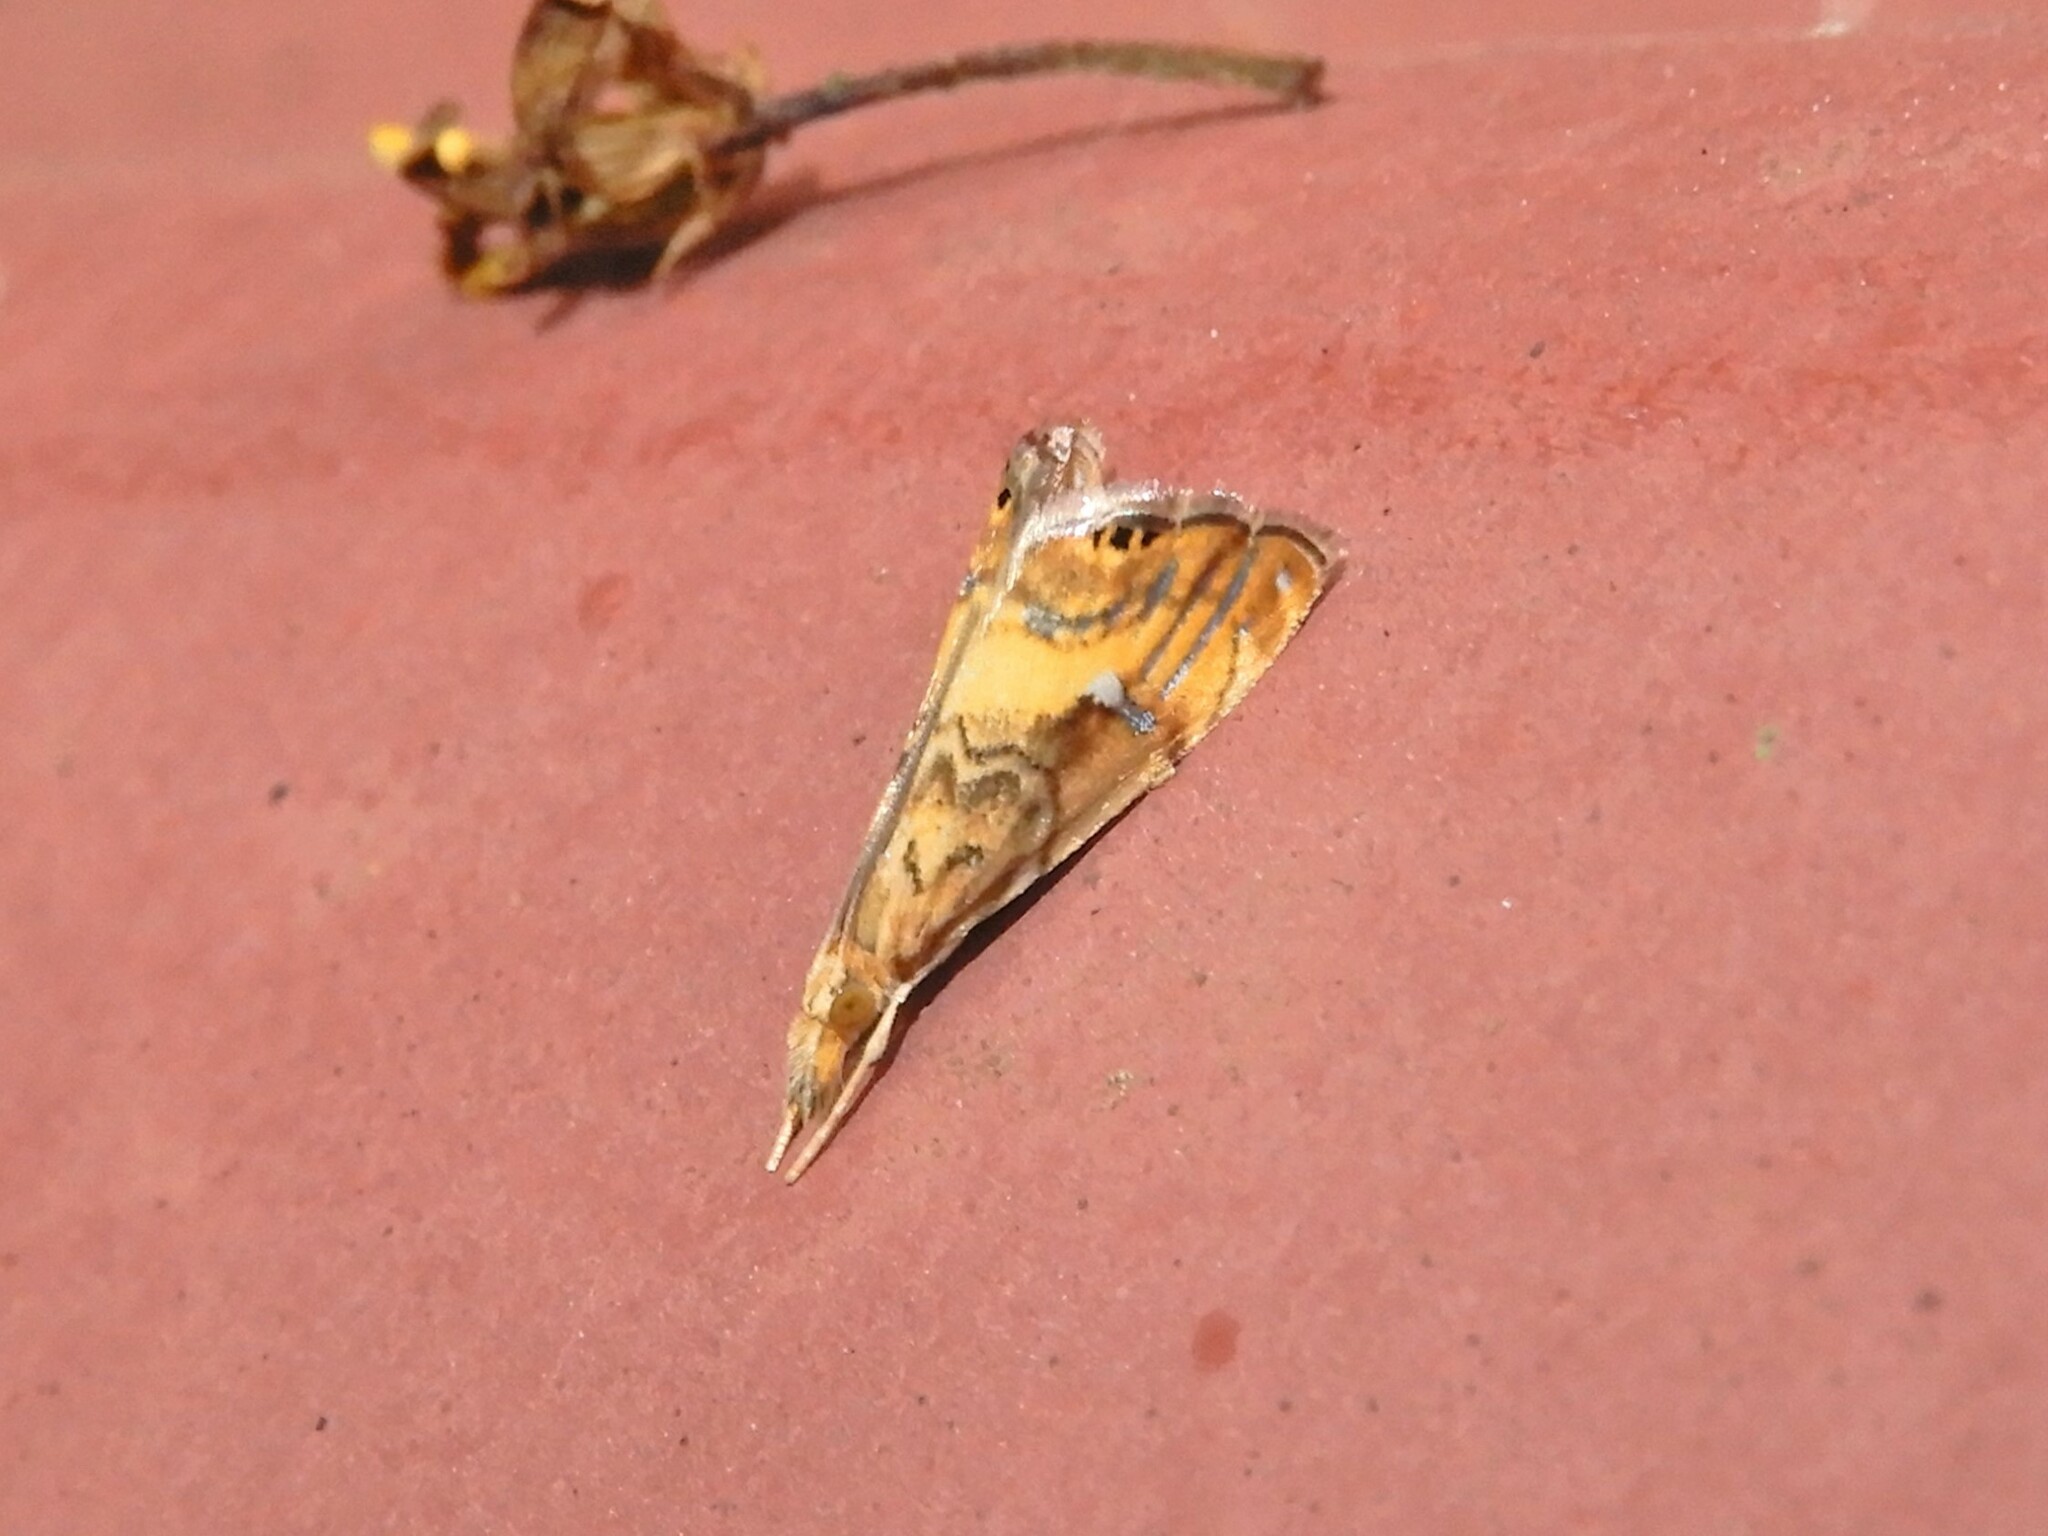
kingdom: Animalia
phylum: Arthropoda
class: Insecta
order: Lepidoptera
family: Crambidae
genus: Glaucocharis
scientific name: Glaucocharis selenaea
